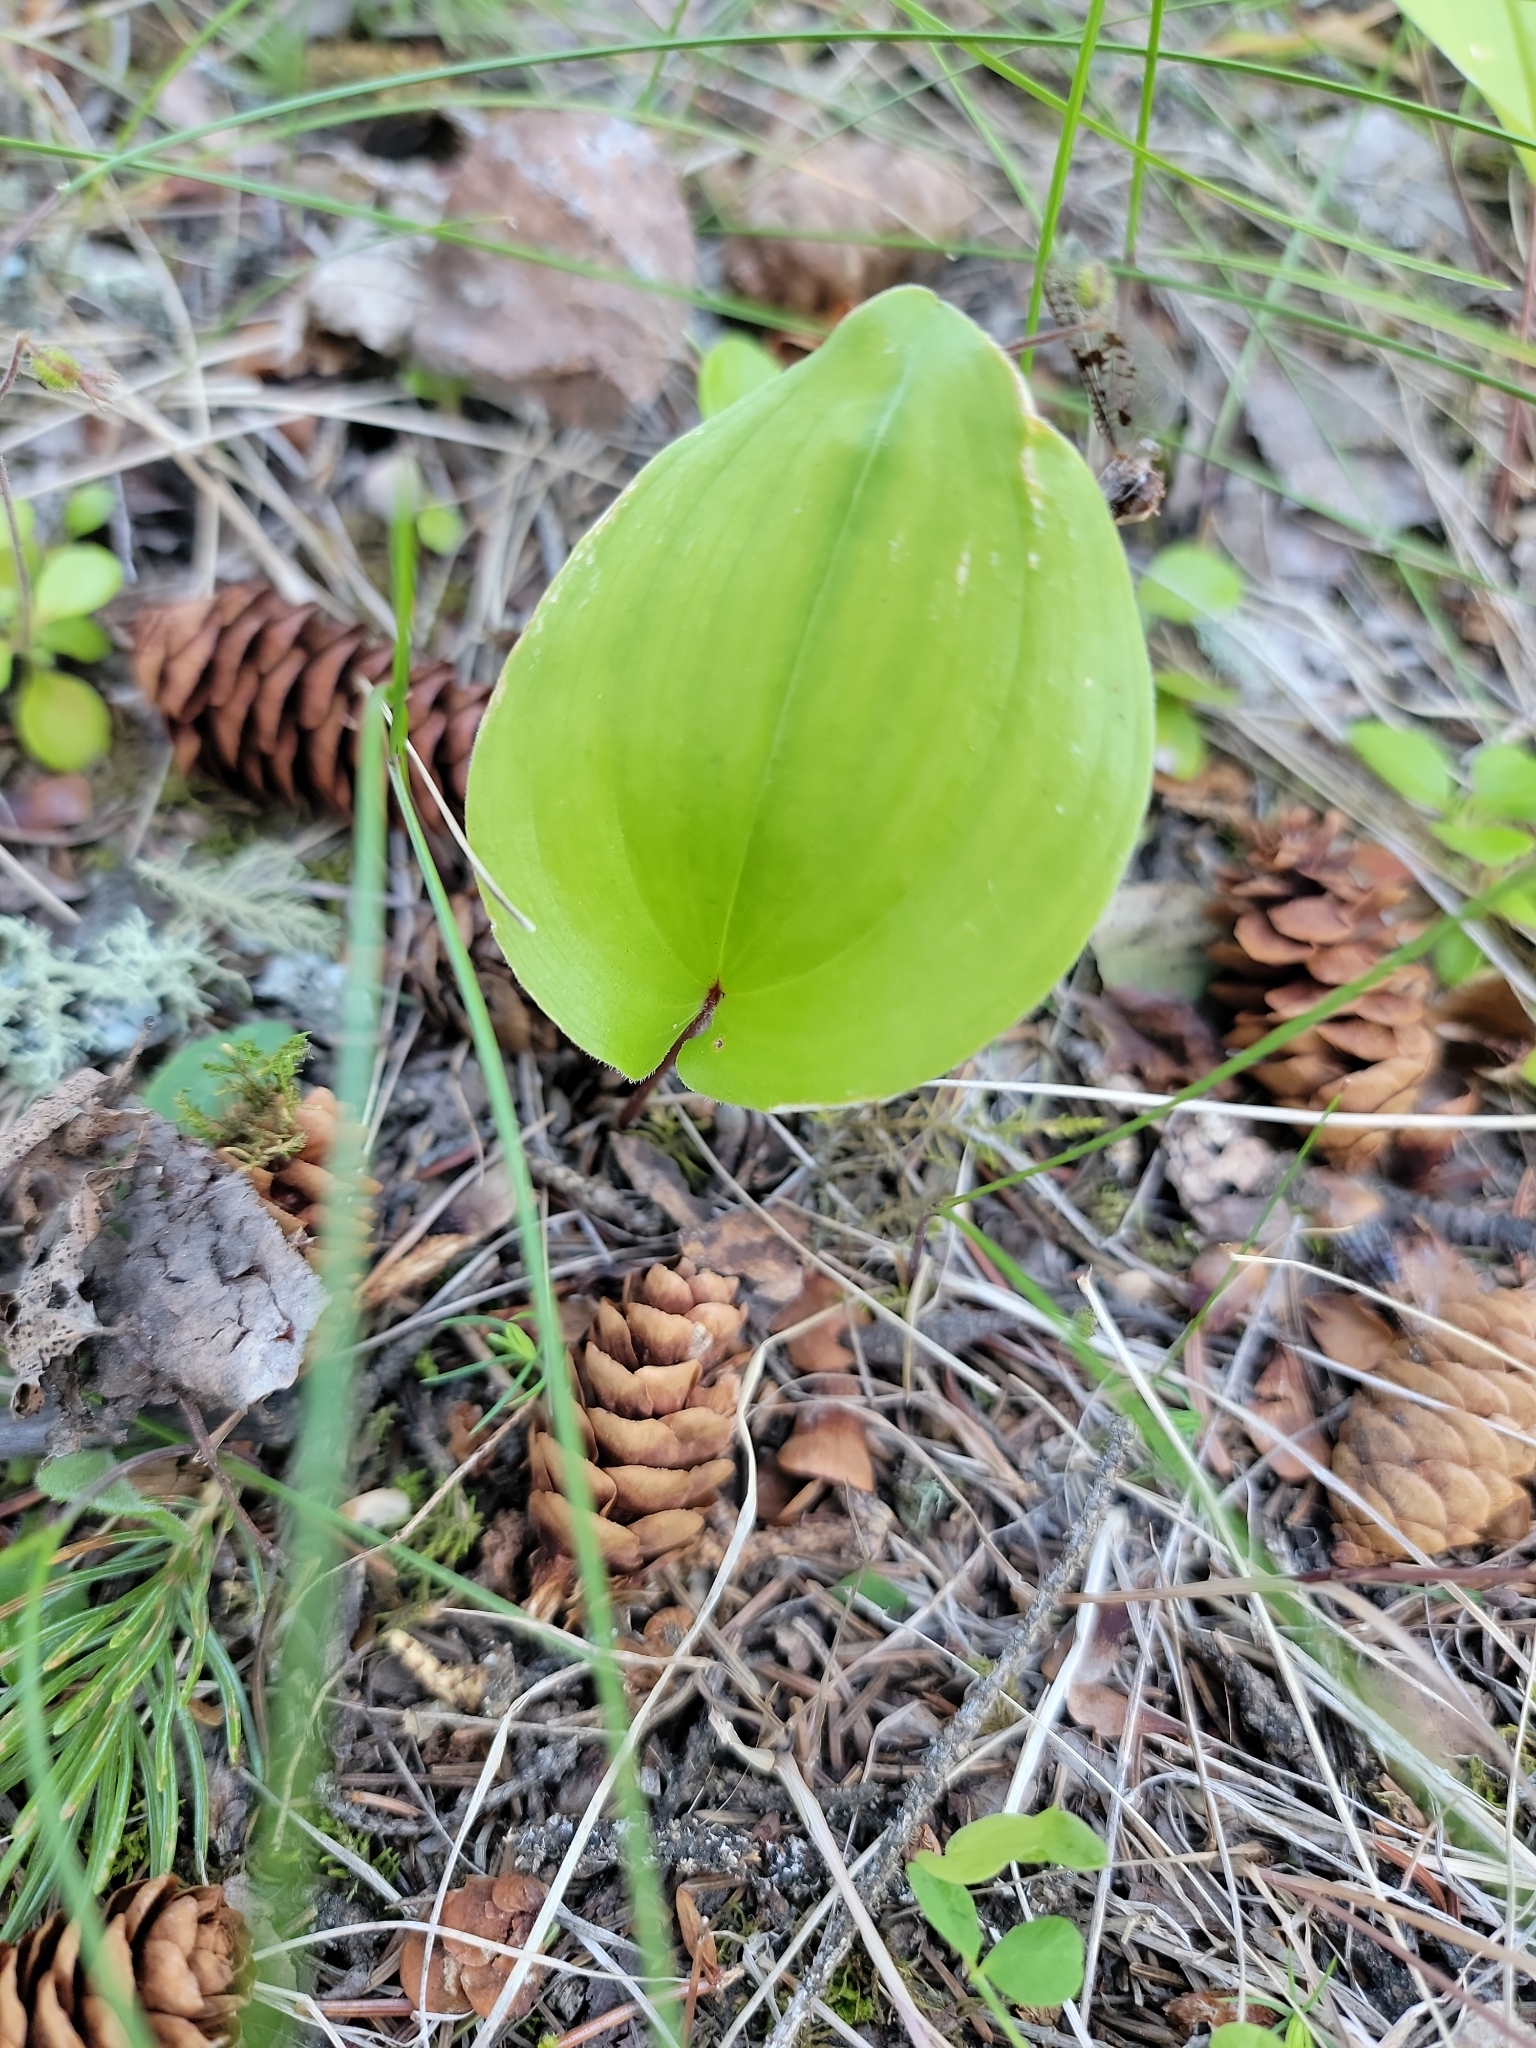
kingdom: Plantae
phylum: Tracheophyta
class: Liliopsida
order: Asparagales
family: Asparagaceae
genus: Maianthemum
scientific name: Maianthemum canadense
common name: False lily-of-the-valley
